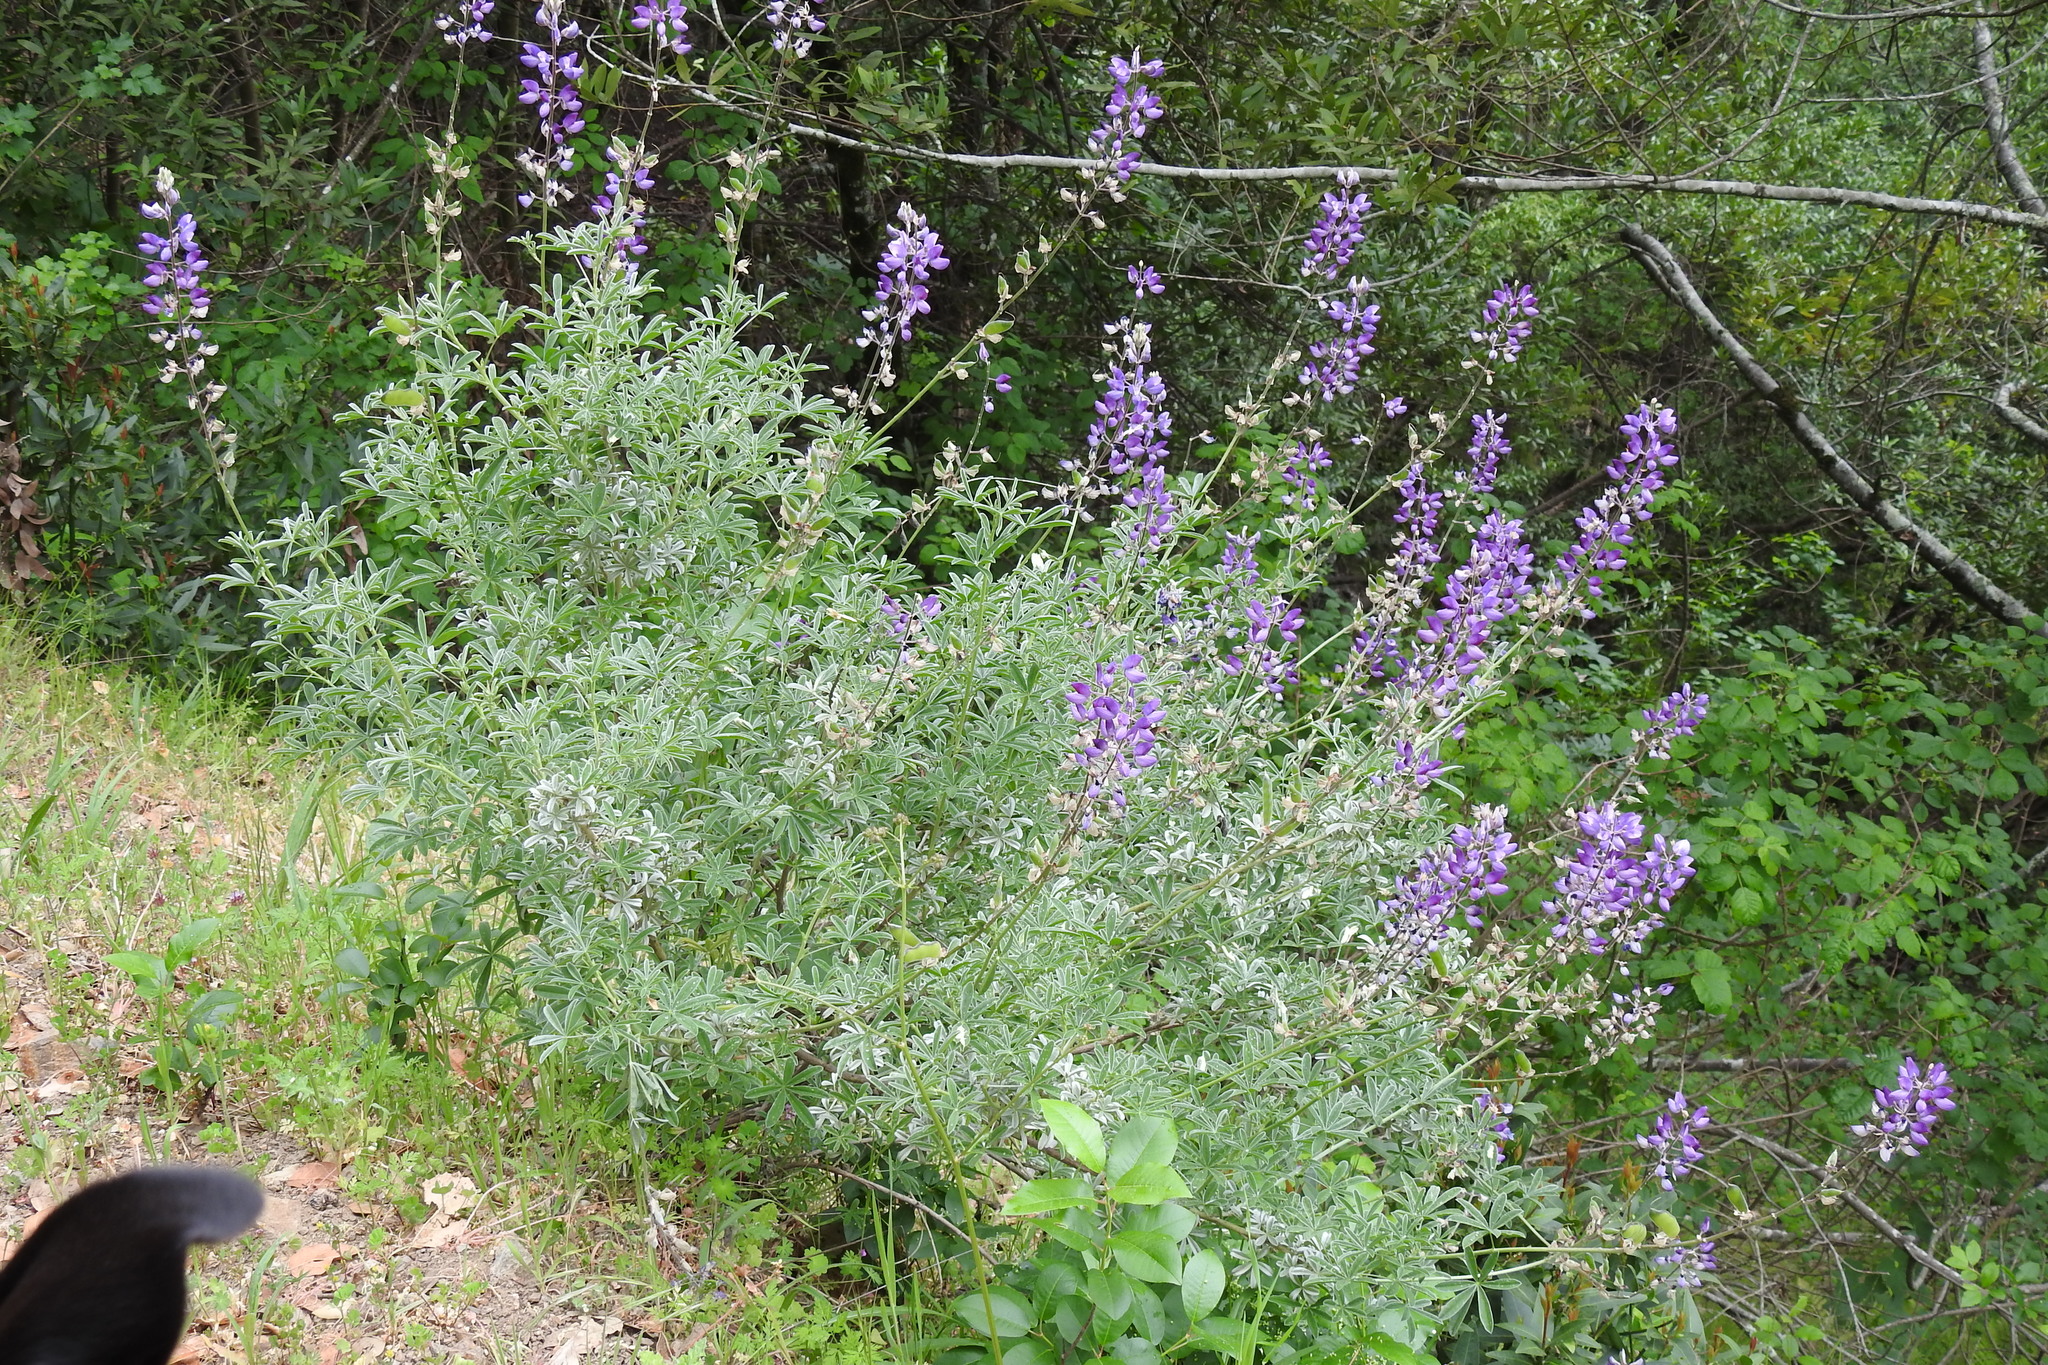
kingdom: Plantae
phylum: Tracheophyta
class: Magnoliopsida
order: Fabales
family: Fabaceae
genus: Lupinus
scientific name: Lupinus albifrons
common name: Foothill lupine
